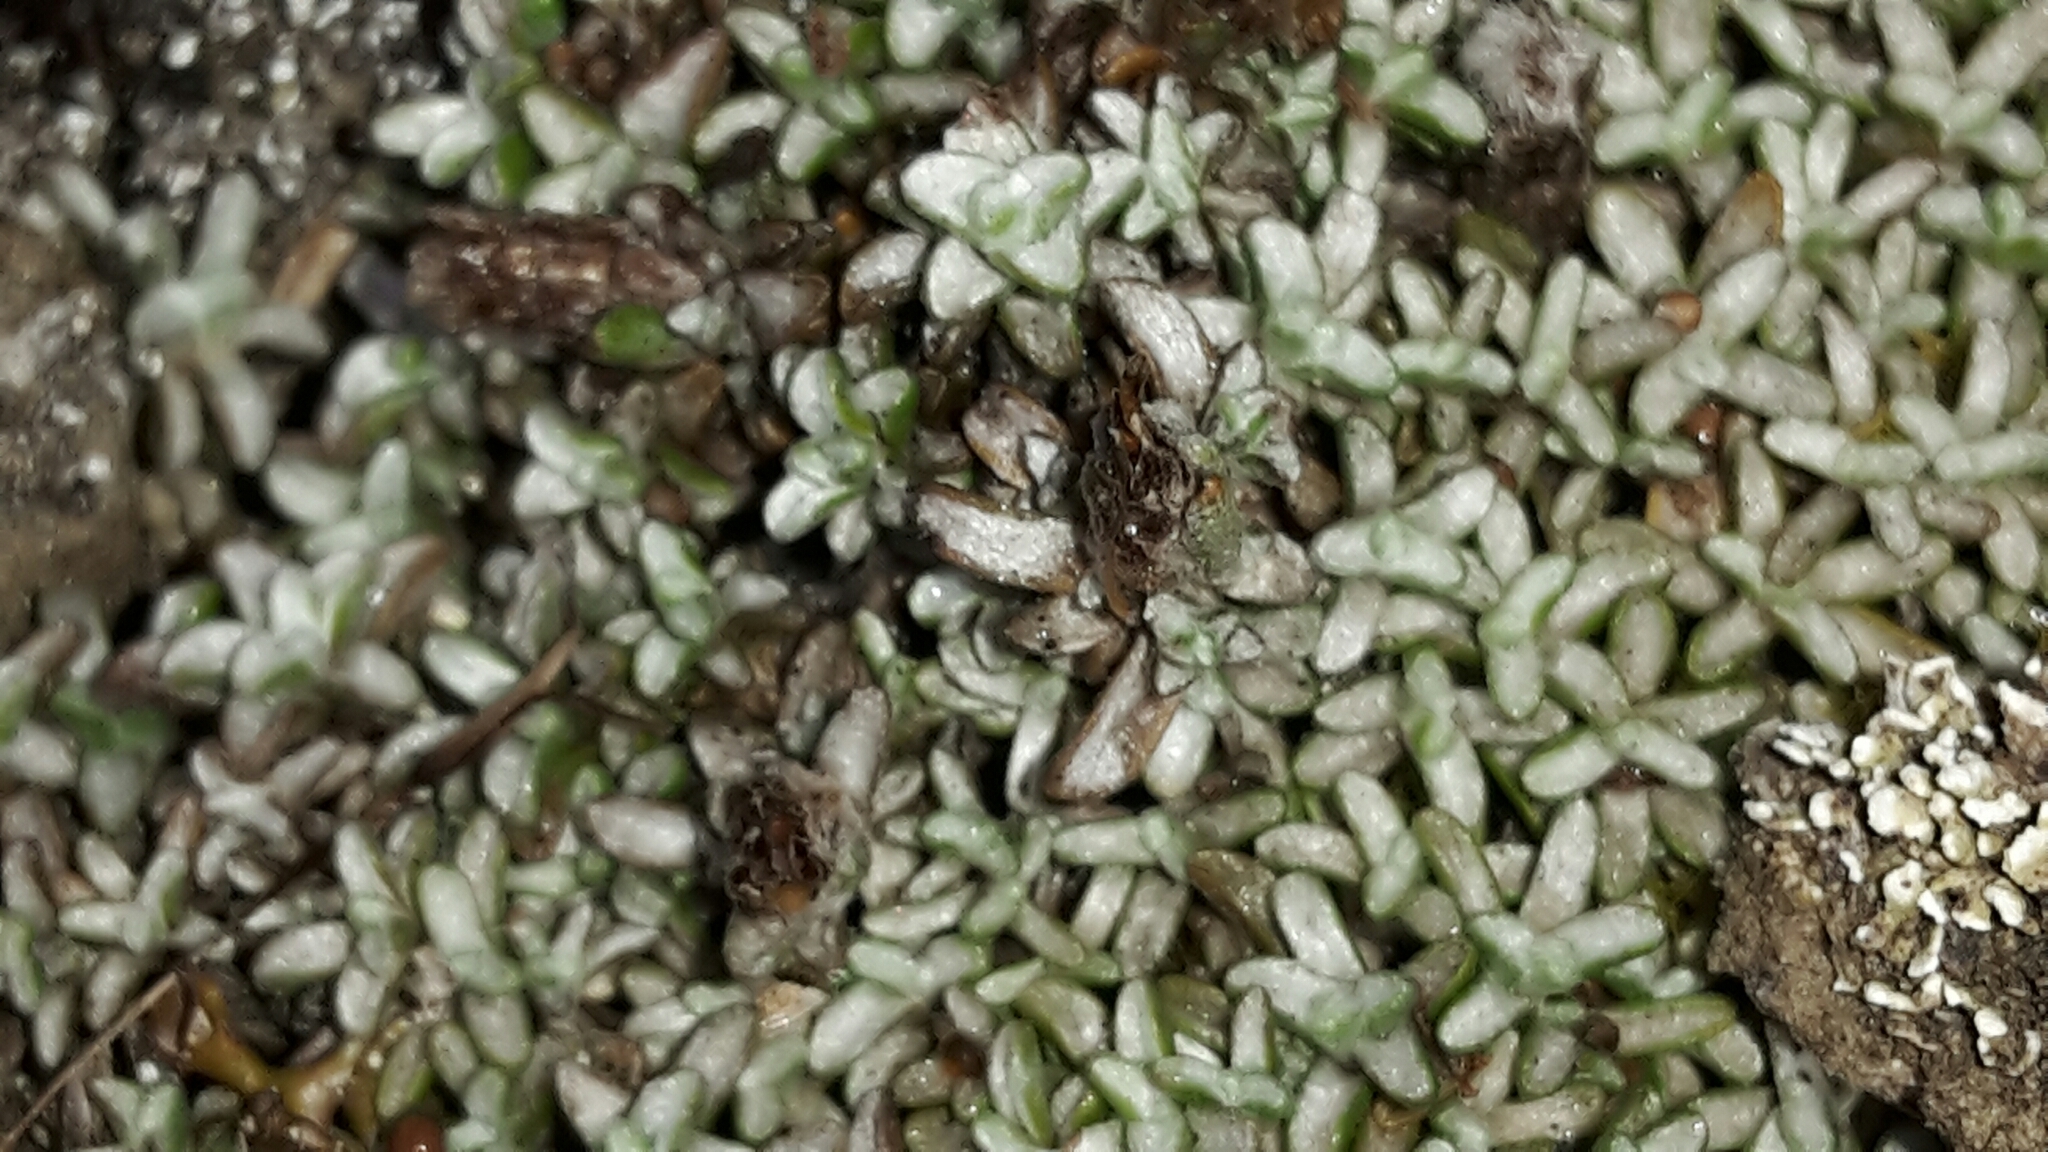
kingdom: Plantae
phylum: Tracheophyta
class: Magnoliopsida
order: Asterales
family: Asteraceae
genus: Raoulia
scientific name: Raoulia beauverdii
